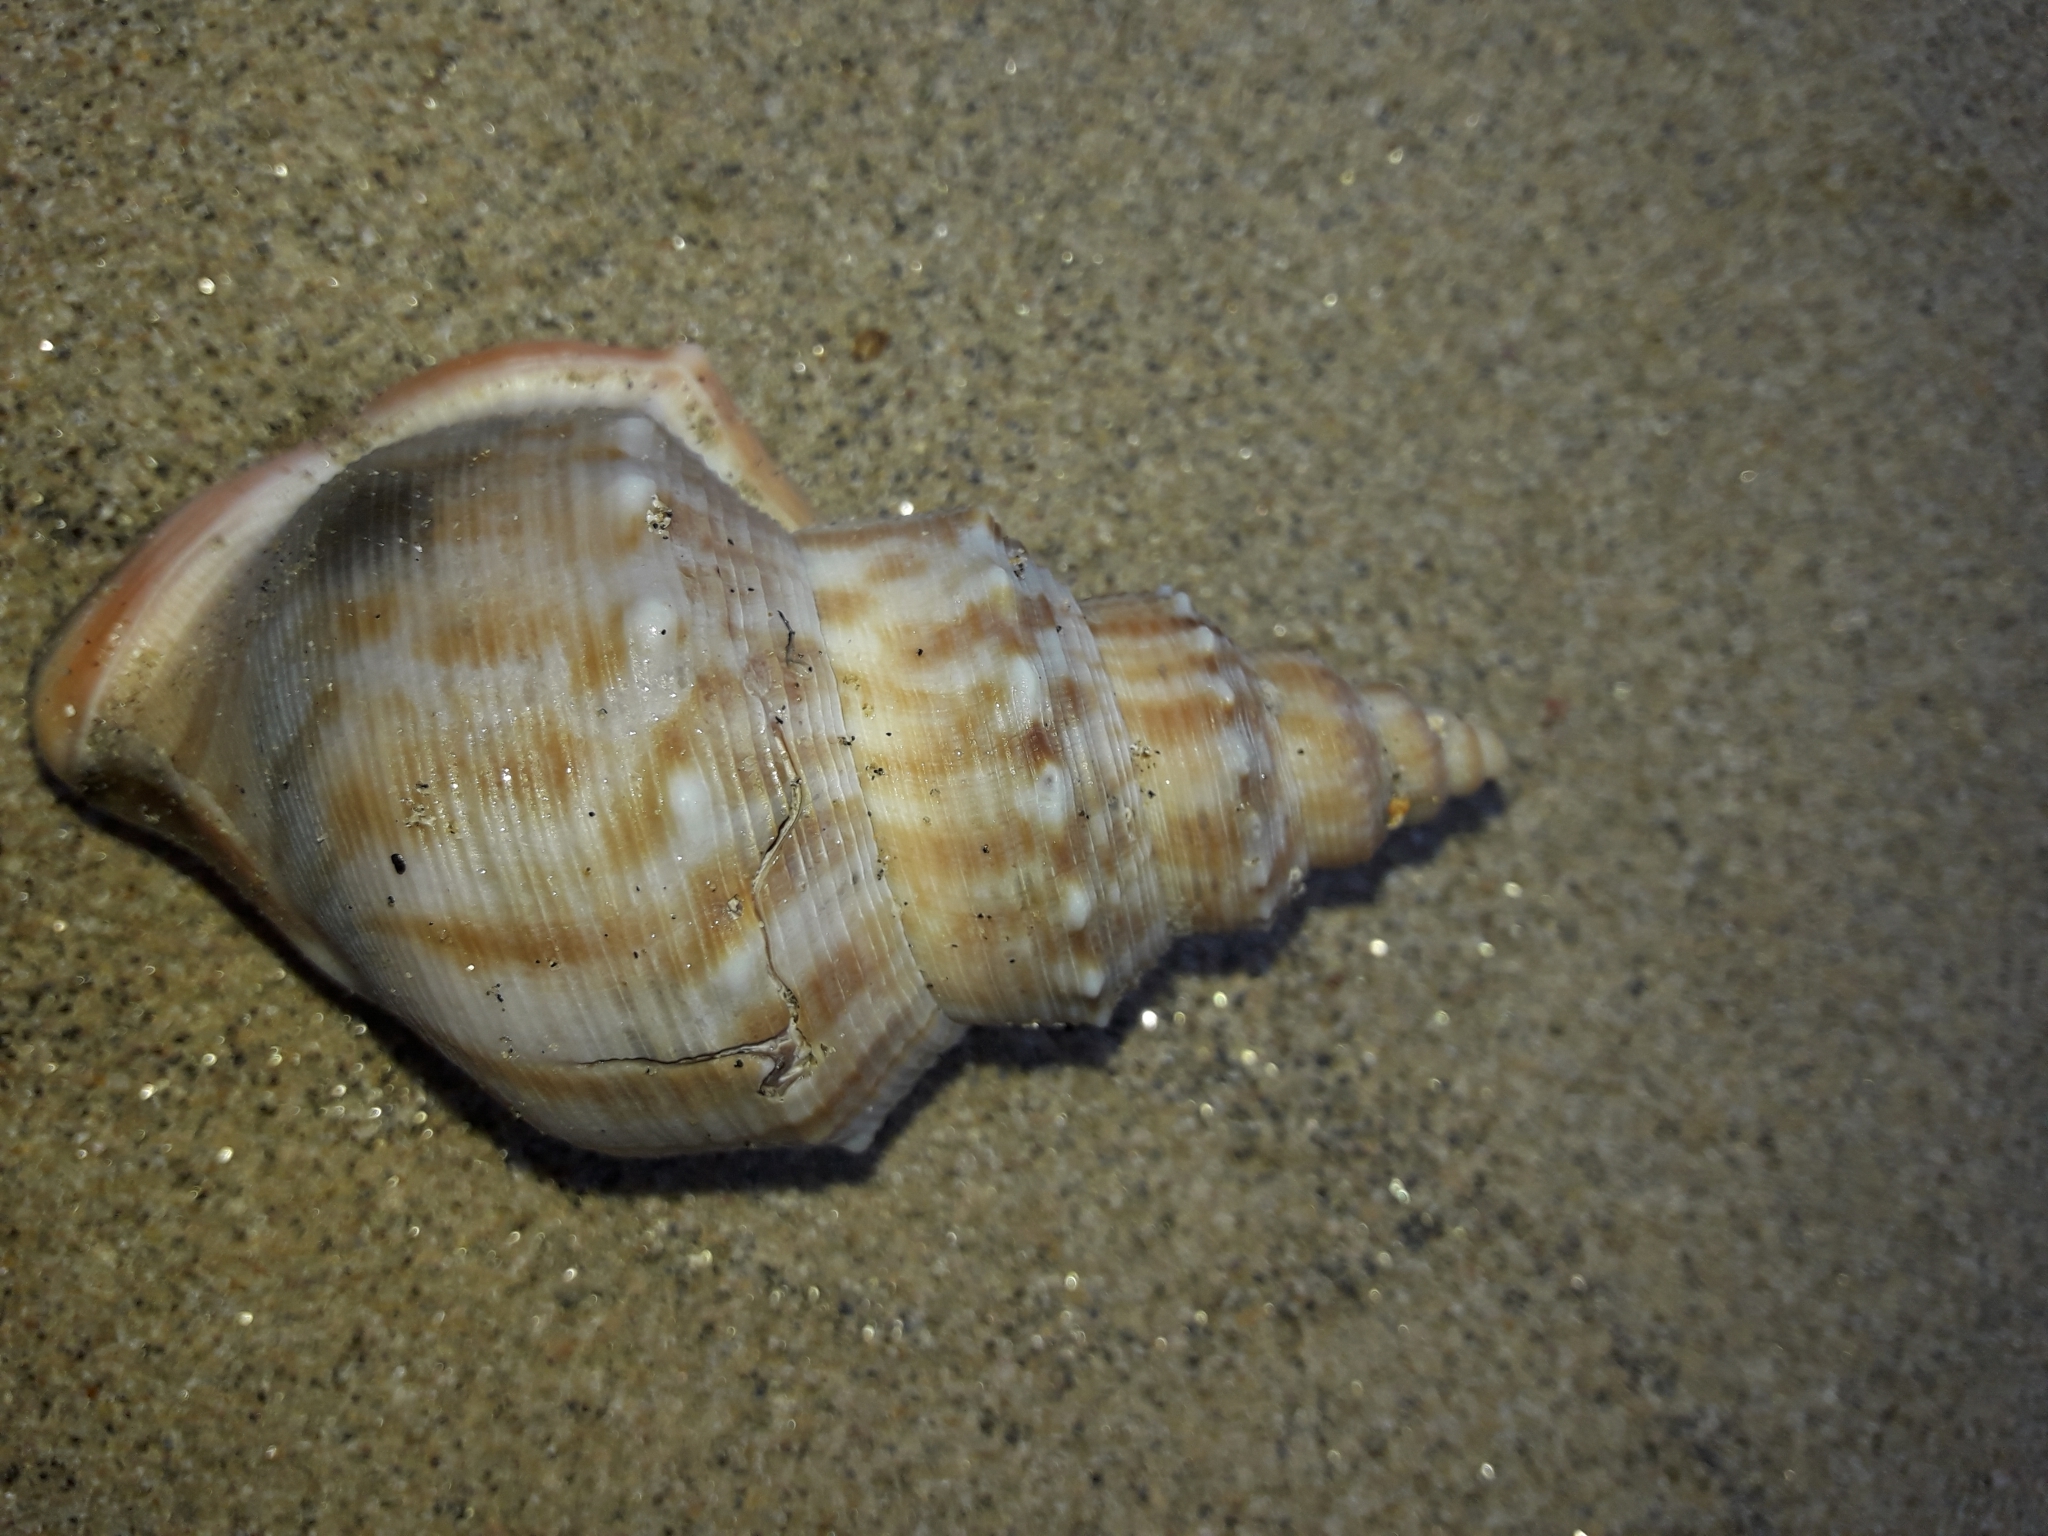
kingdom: Animalia
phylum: Mollusca
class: Gastropoda
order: Littorinimorpha
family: Struthiolariidae
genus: Struthiolaria
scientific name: Struthiolaria papulosa
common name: Large ostrich foot
